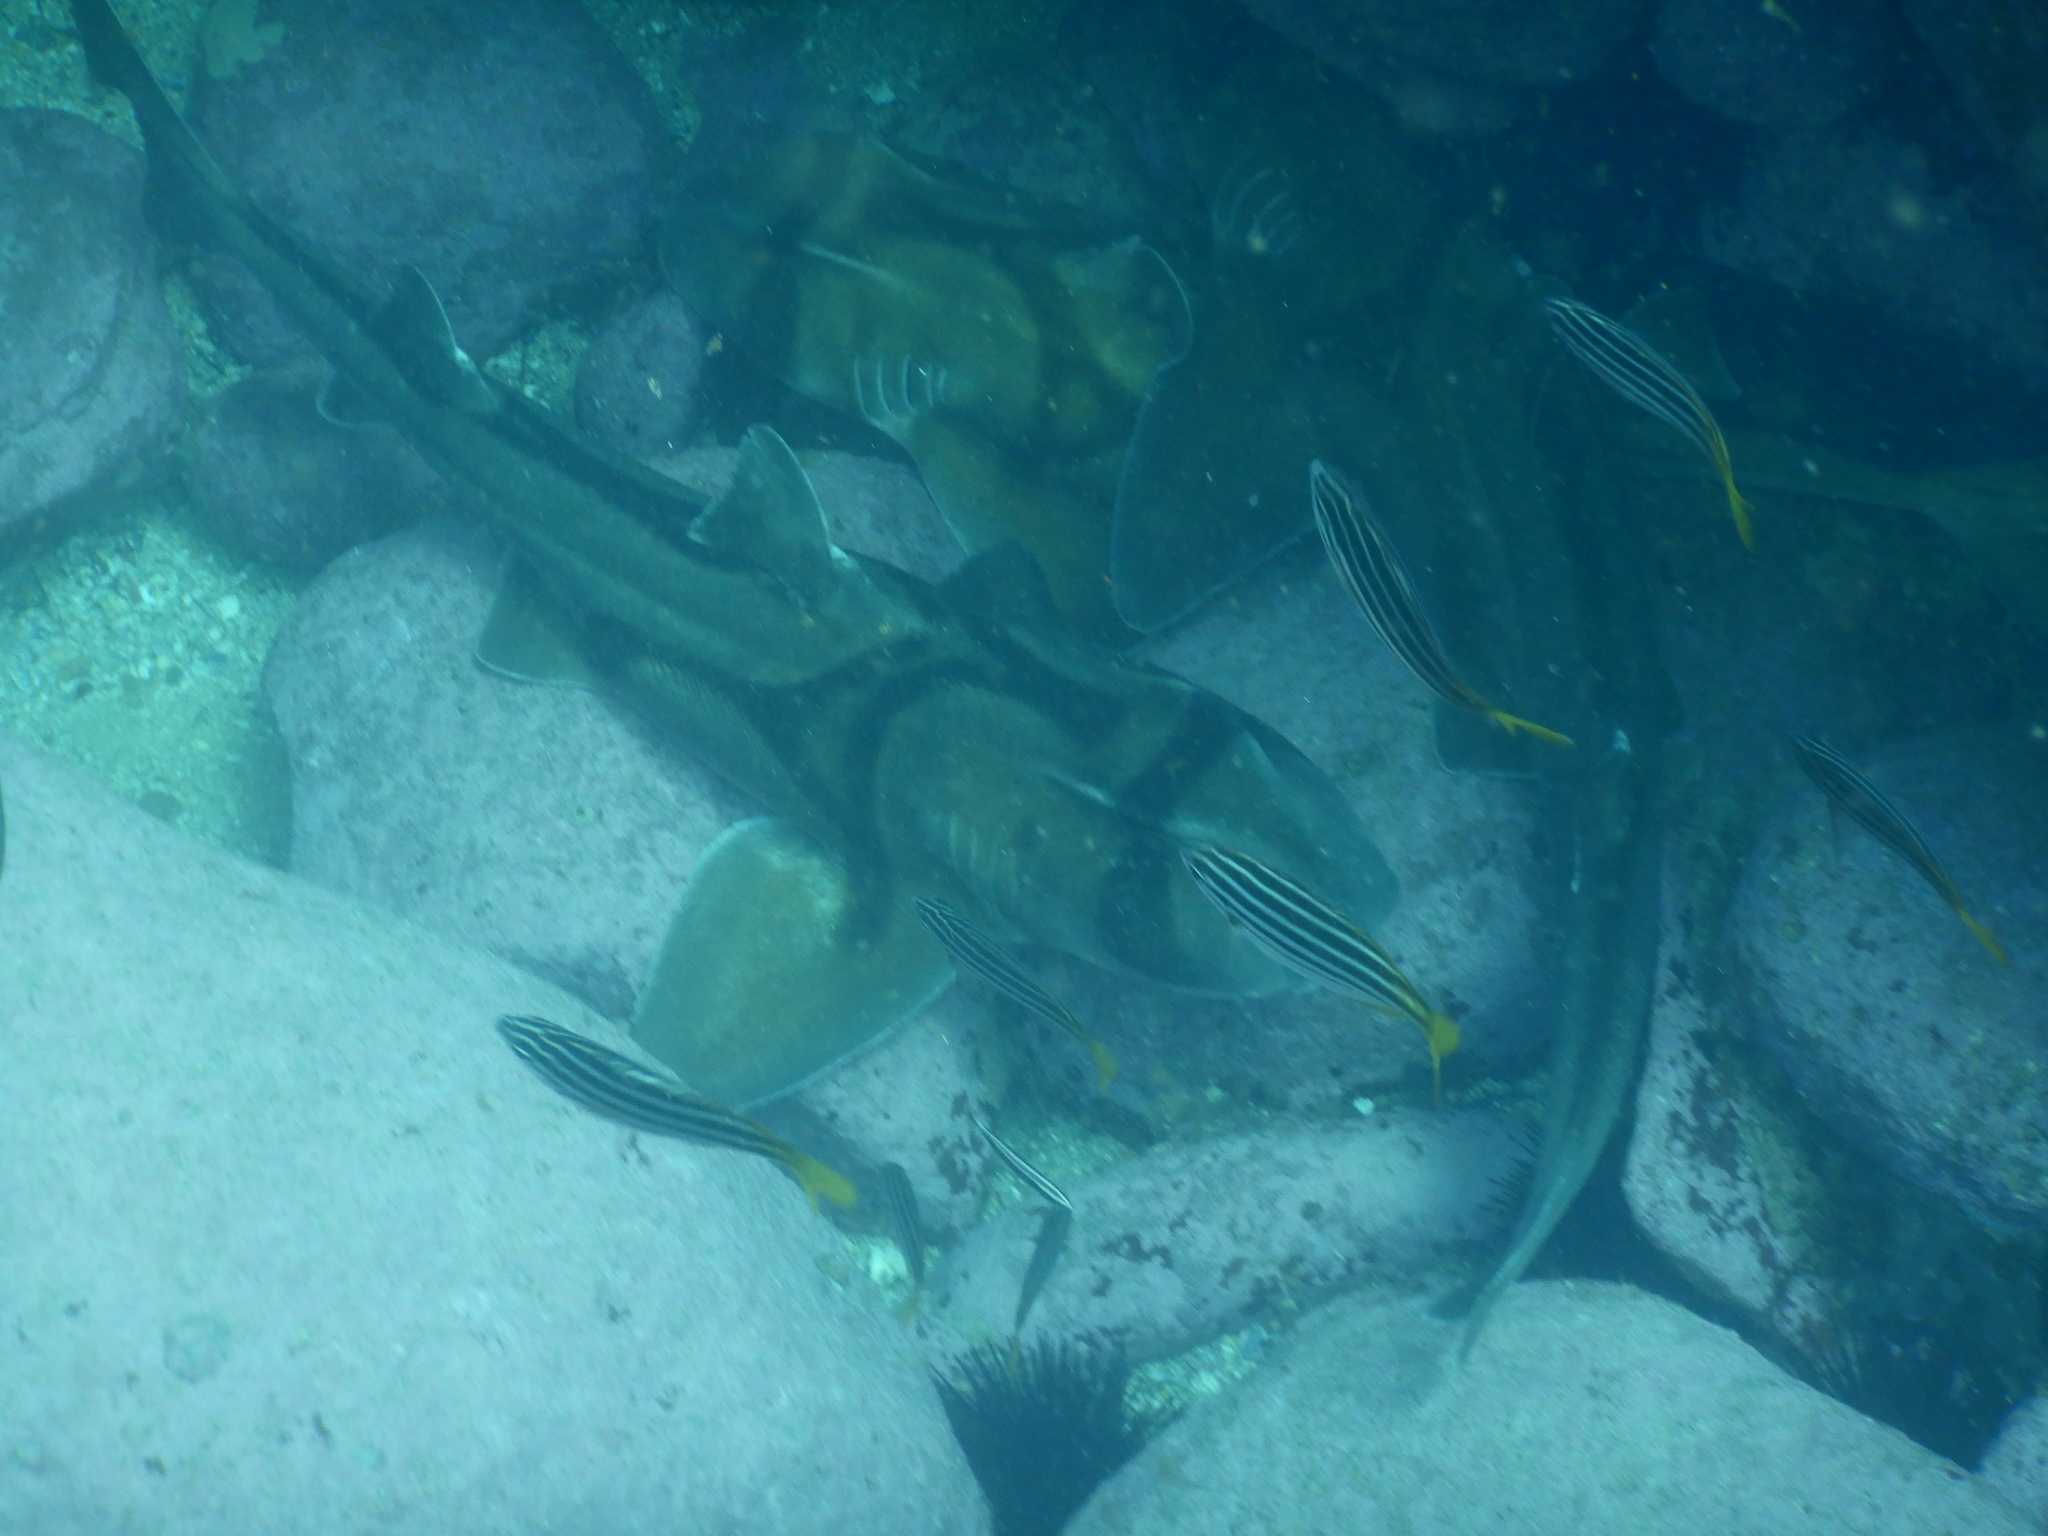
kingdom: Animalia
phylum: Chordata
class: Elasmobranchii
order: Heterodontiformes
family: Heterodontidae
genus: Heterodontus
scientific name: Heterodontus portusjacksoni
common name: Port jackson shark
